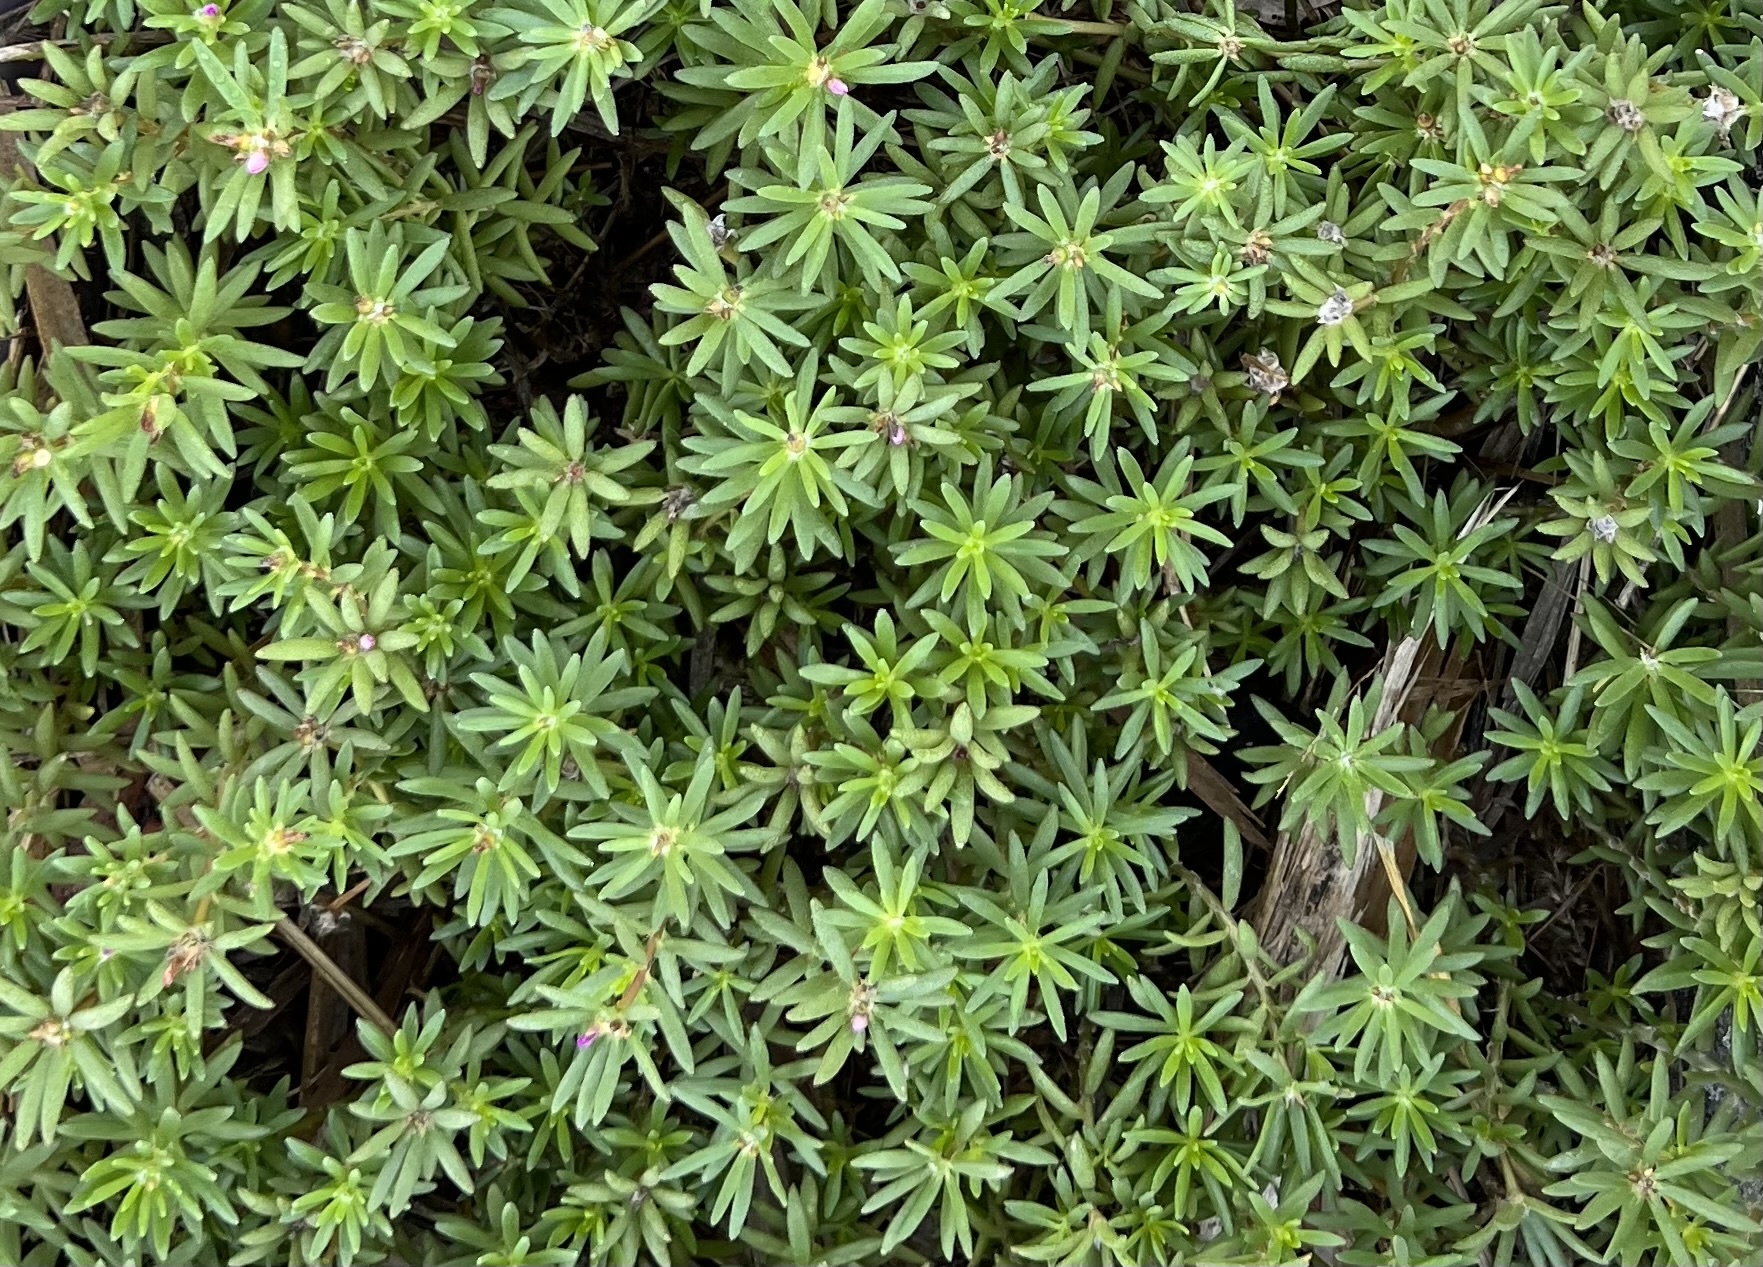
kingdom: Plantae
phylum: Tracheophyta
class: Magnoliopsida
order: Caryophyllales
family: Portulacaceae
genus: Portulaca
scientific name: Portulaca pilosa
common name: Kiss me quick
